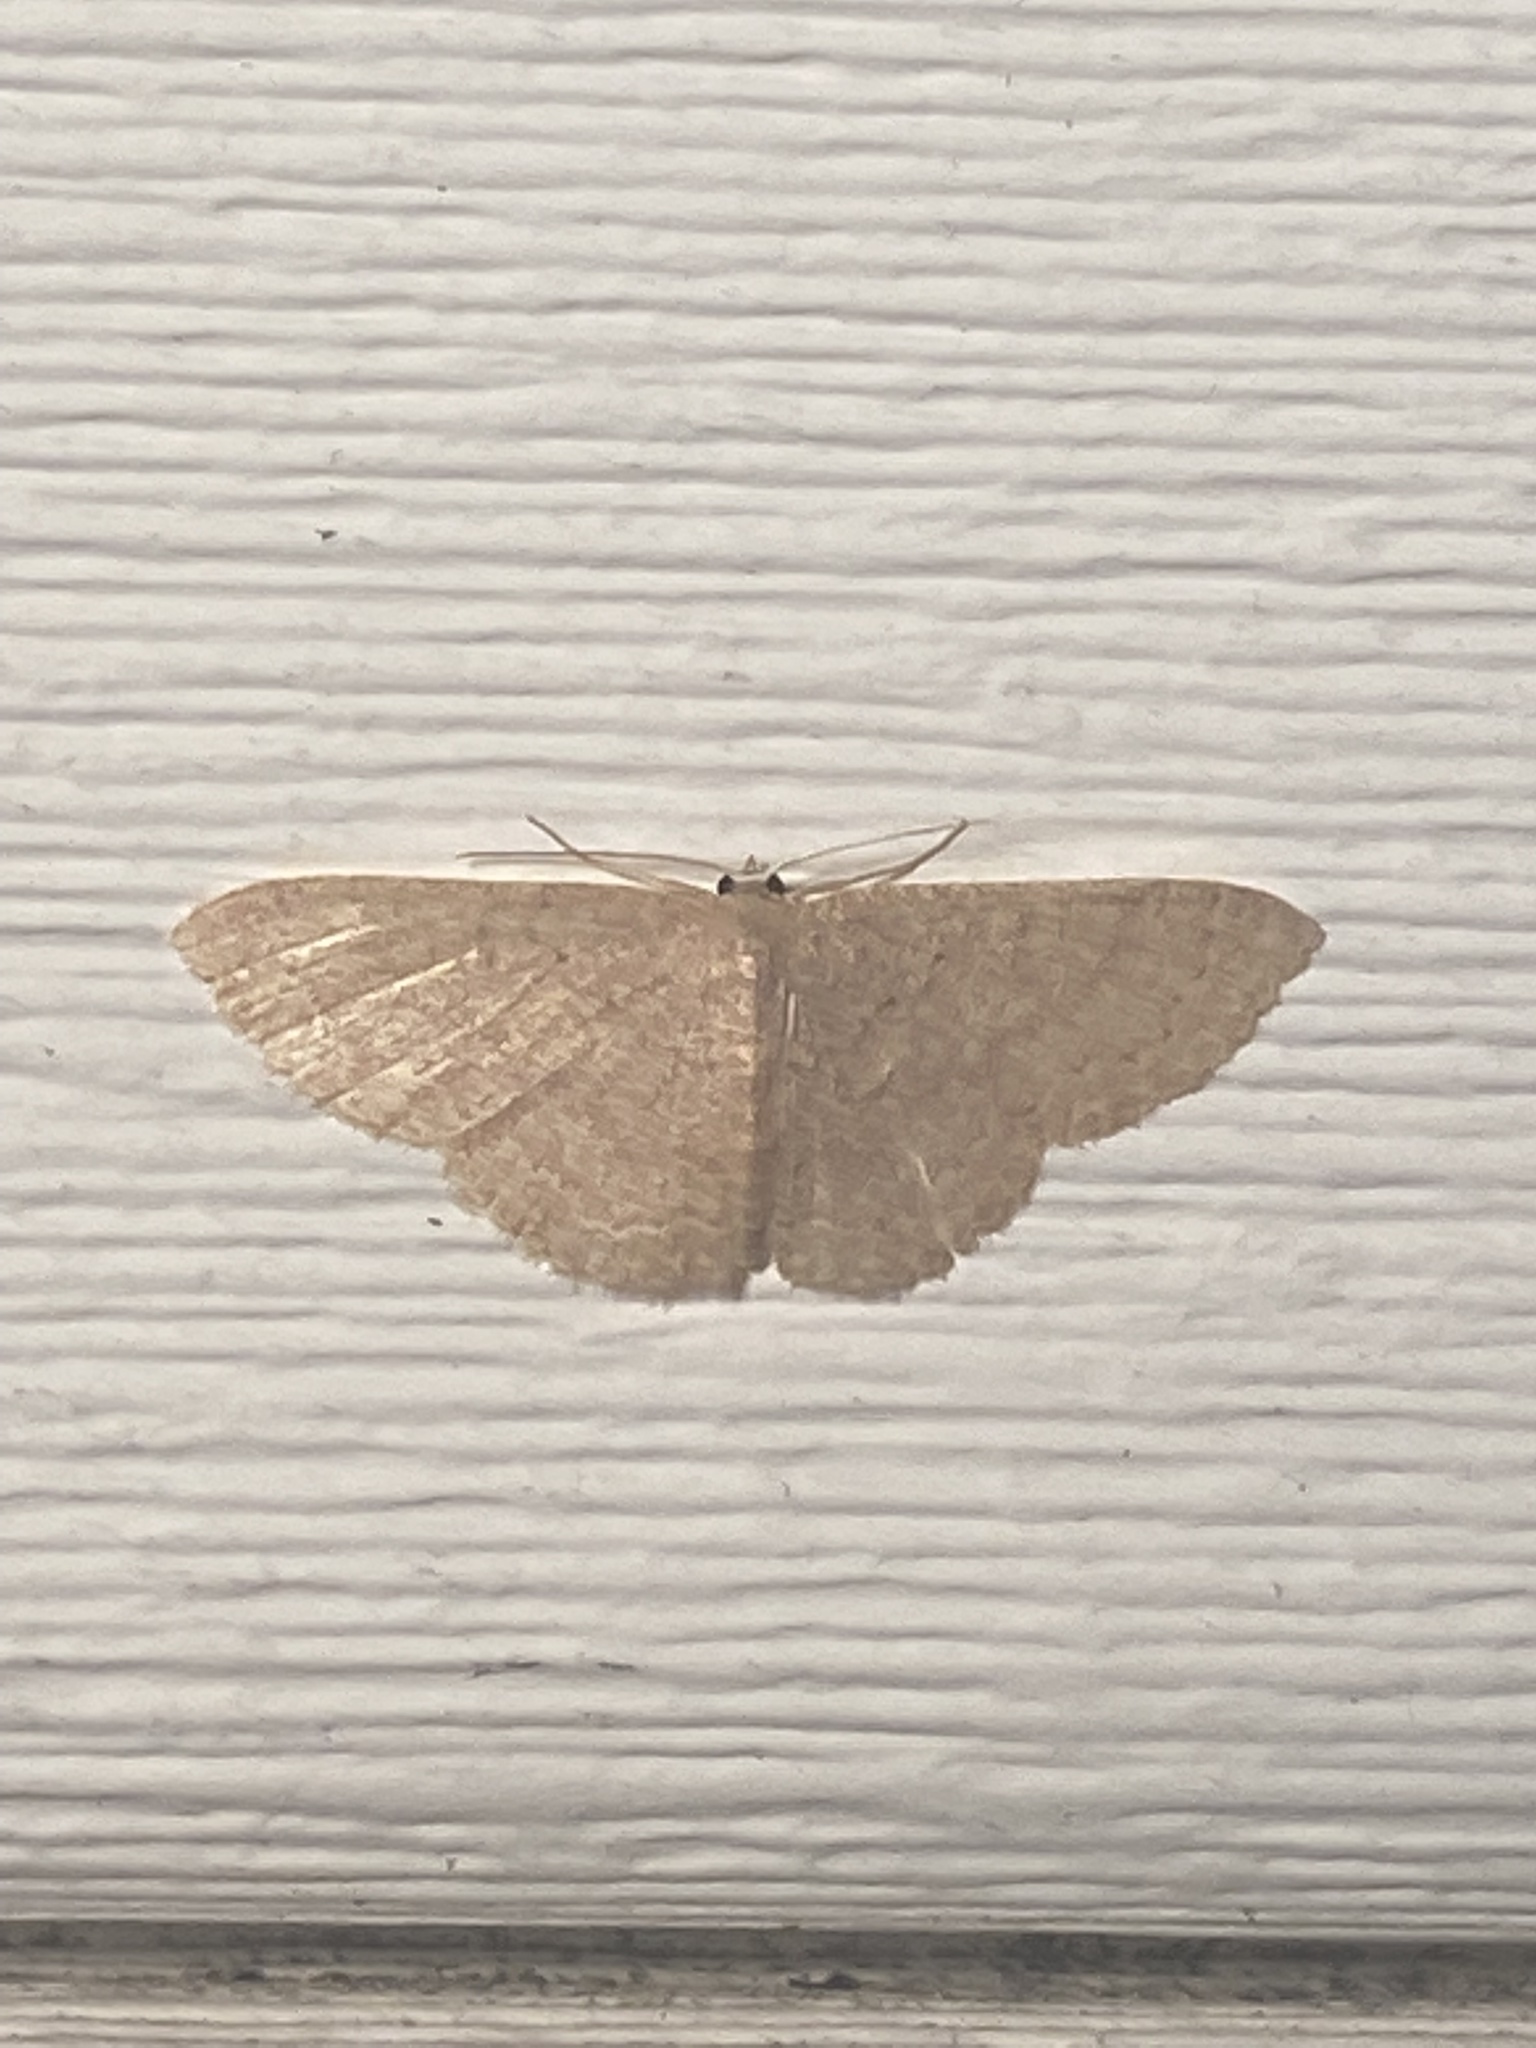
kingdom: Animalia
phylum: Arthropoda
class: Insecta
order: Lepidoptera
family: Geometridae
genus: Pleuroprucha
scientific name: Pleuroprucha insulsaria
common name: Common tan wave
